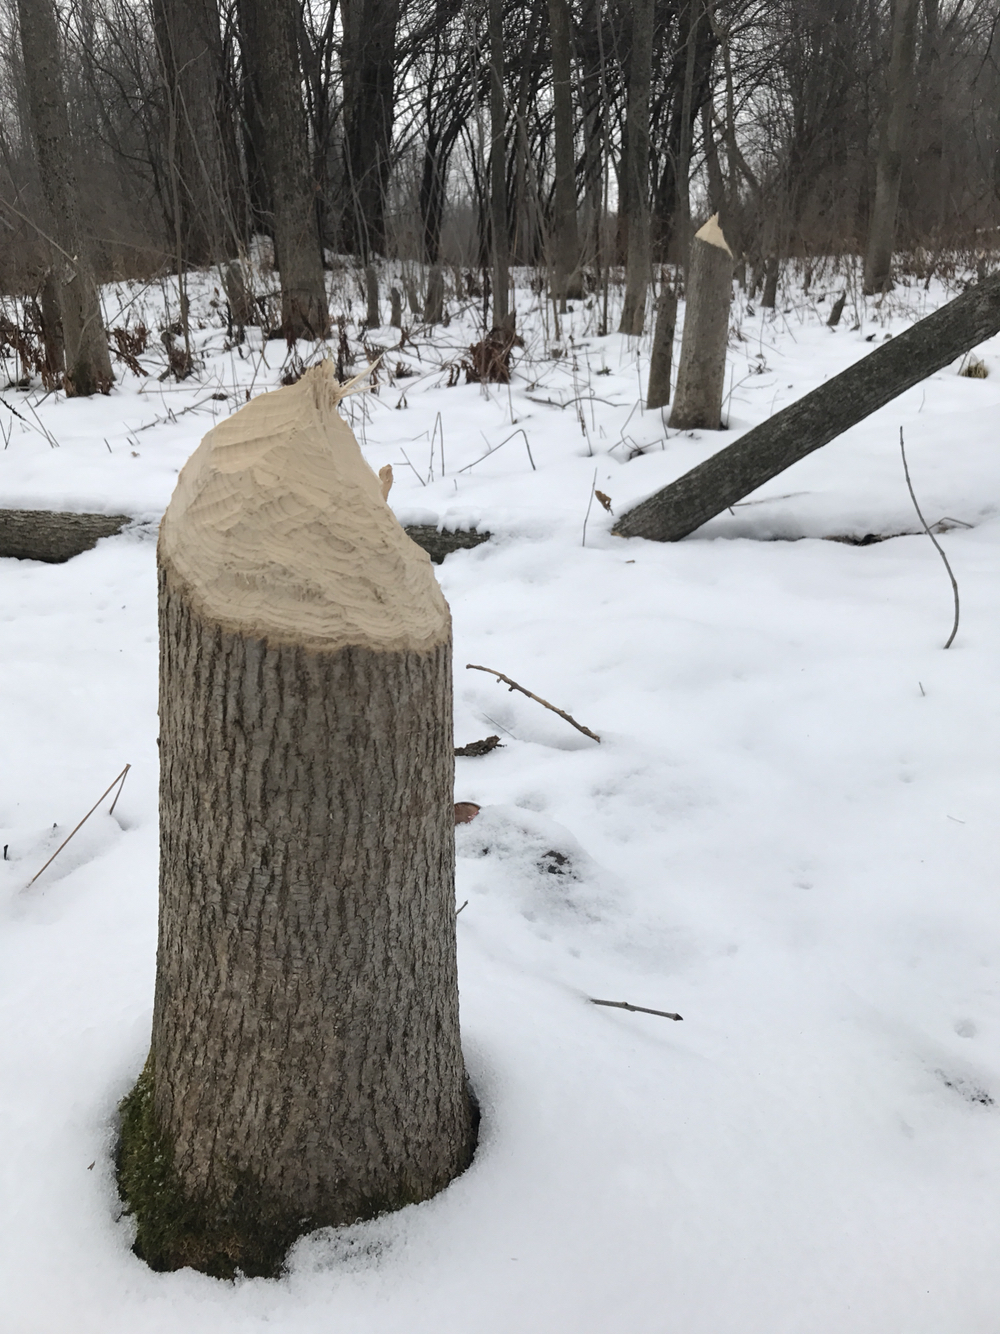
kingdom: Animalia
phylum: Chordata
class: Mammalia
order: Rodentia
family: Castoridae
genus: Castor
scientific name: Castor canadensis
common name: American beaver
